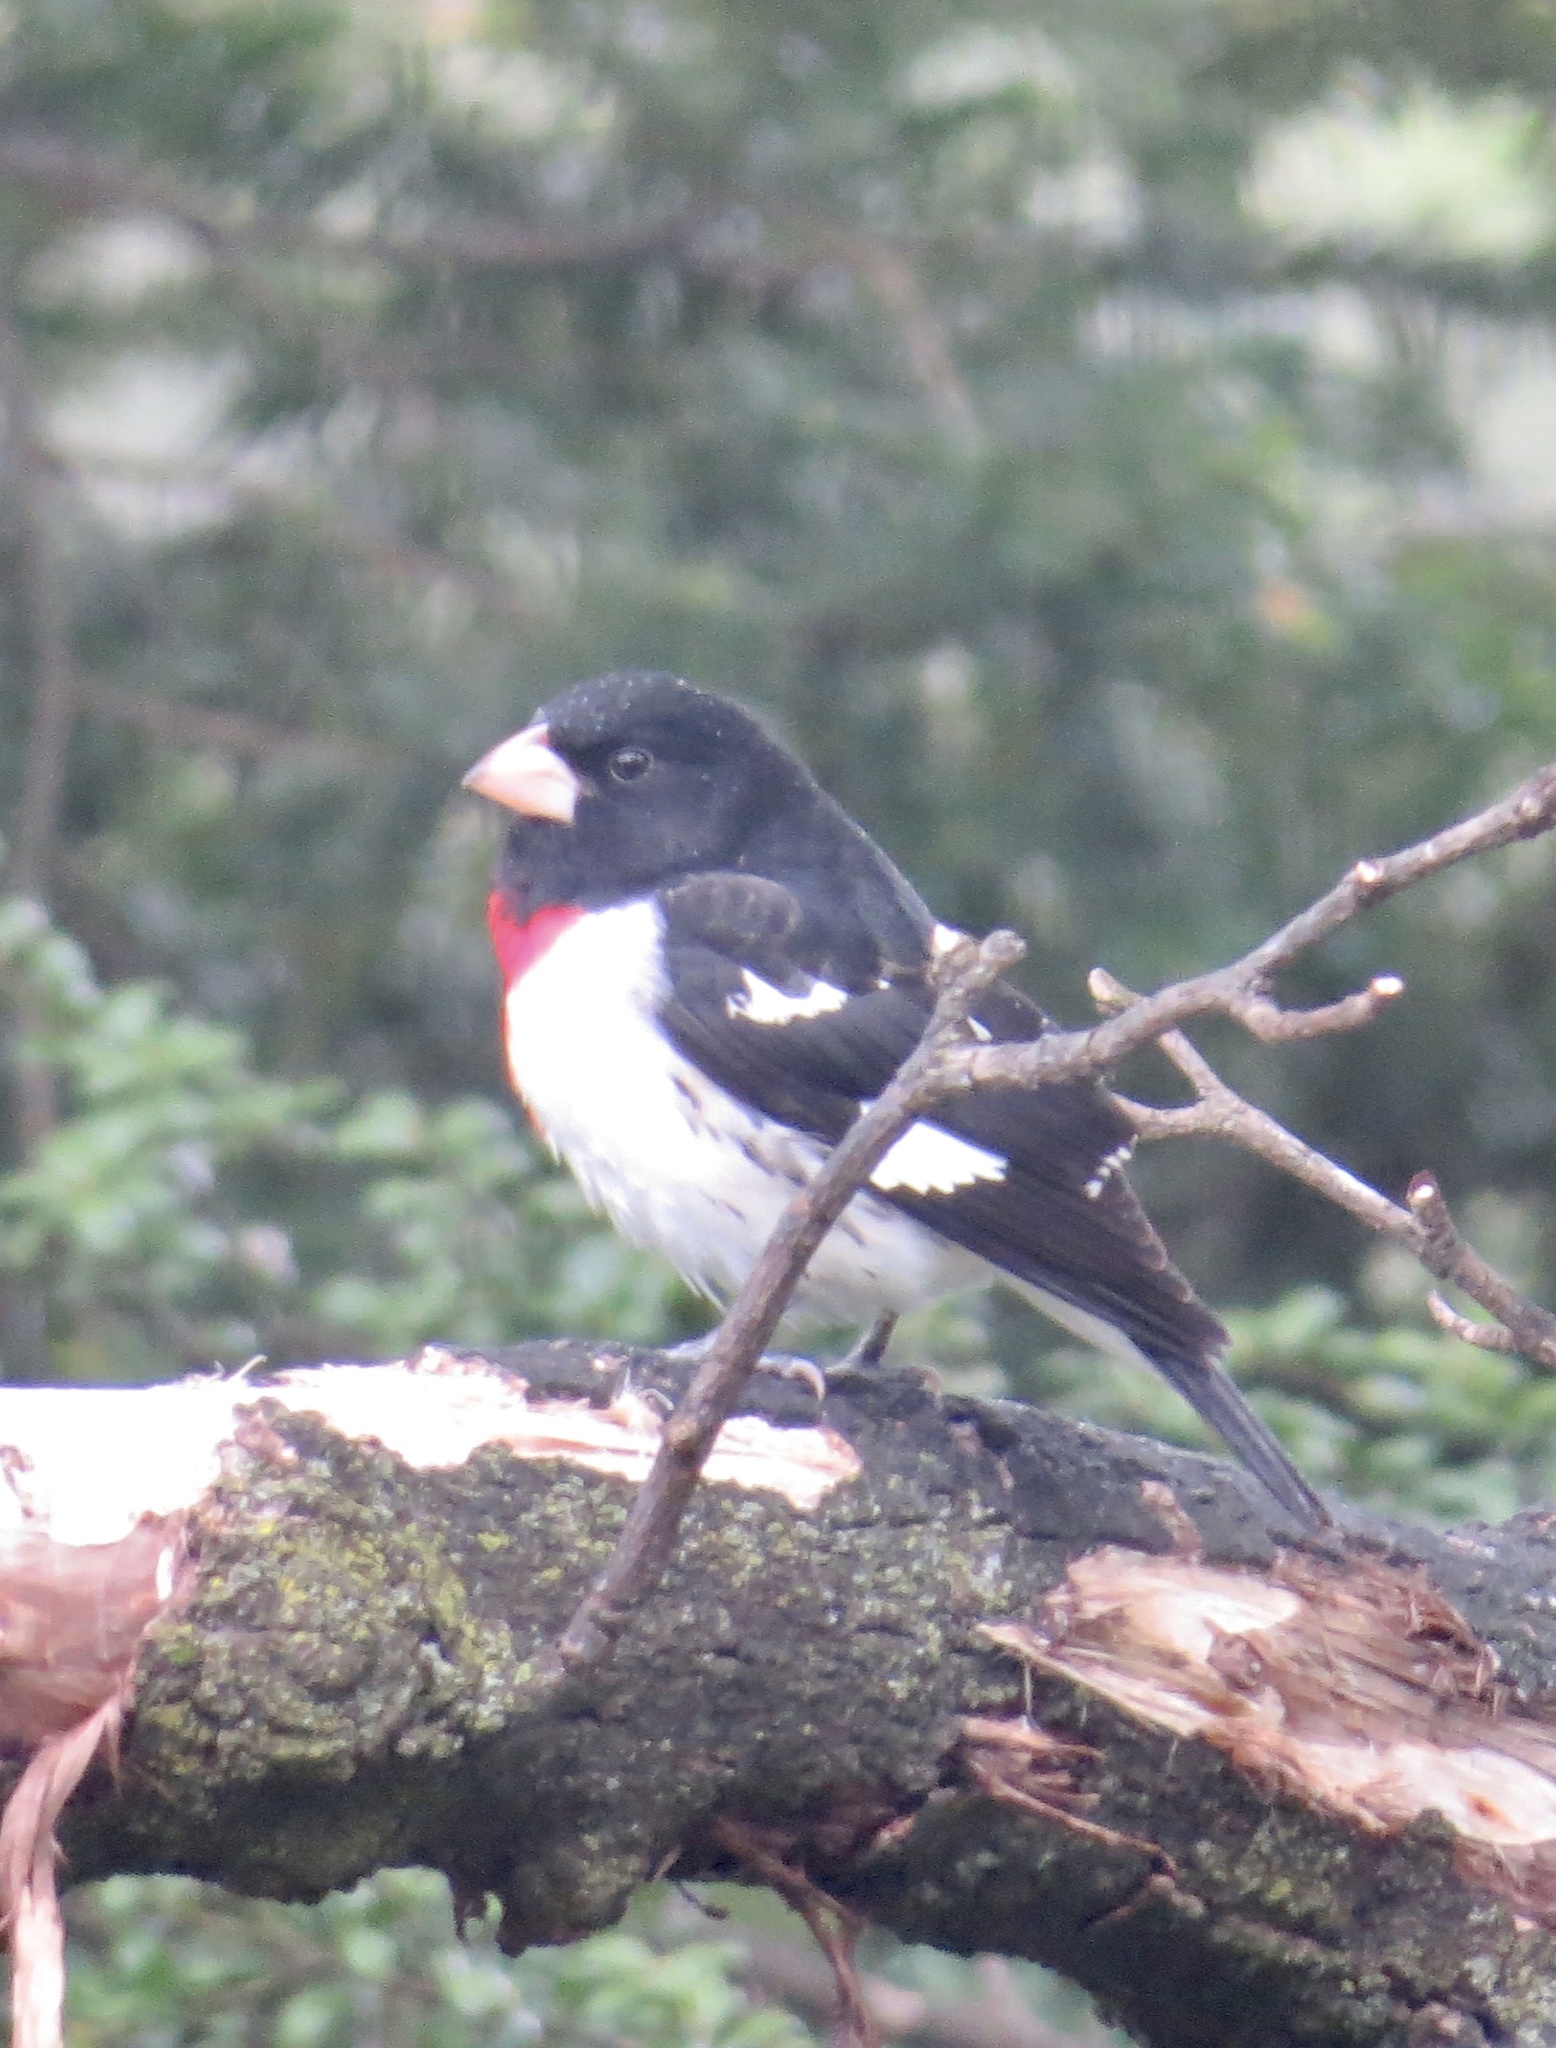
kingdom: Animalia
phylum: Chordata
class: Aves
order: Passeriformes
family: Cardinalidae
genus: Pheucticus
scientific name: Pheucticus ludovicianus
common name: Rose-breasted grosbeak
